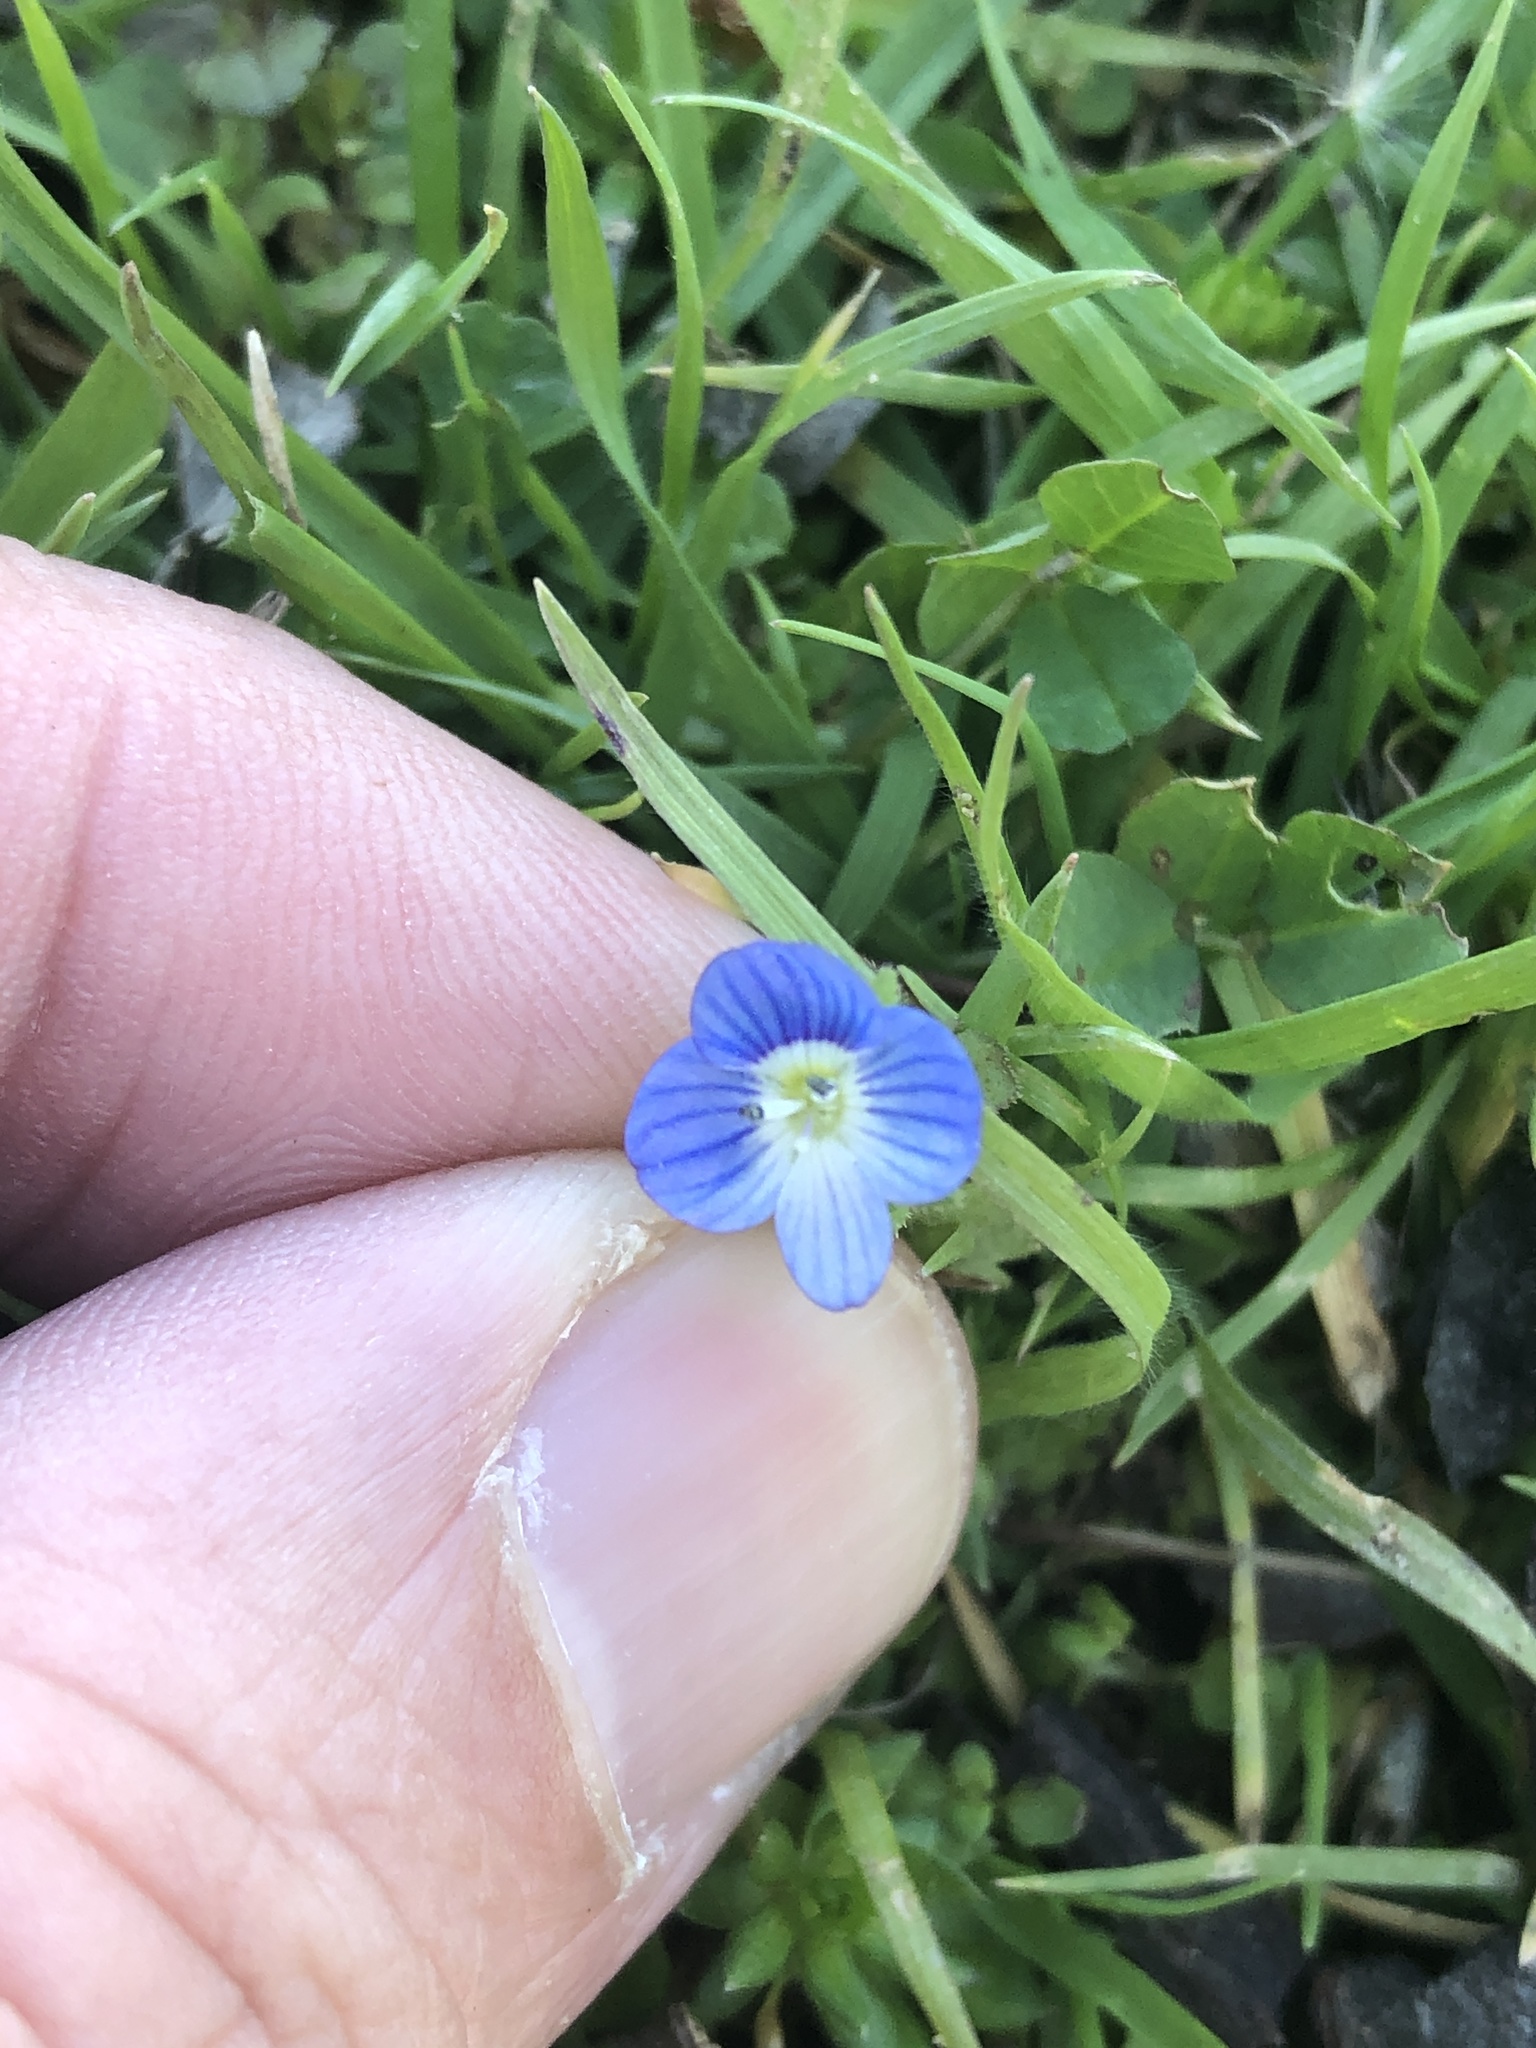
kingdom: Plantae
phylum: Tracheophyta
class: Magnoliopsida
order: Lamiales
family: Plantaginaceae
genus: Veronica
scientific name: Veronica persica
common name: Common field-speedwell
